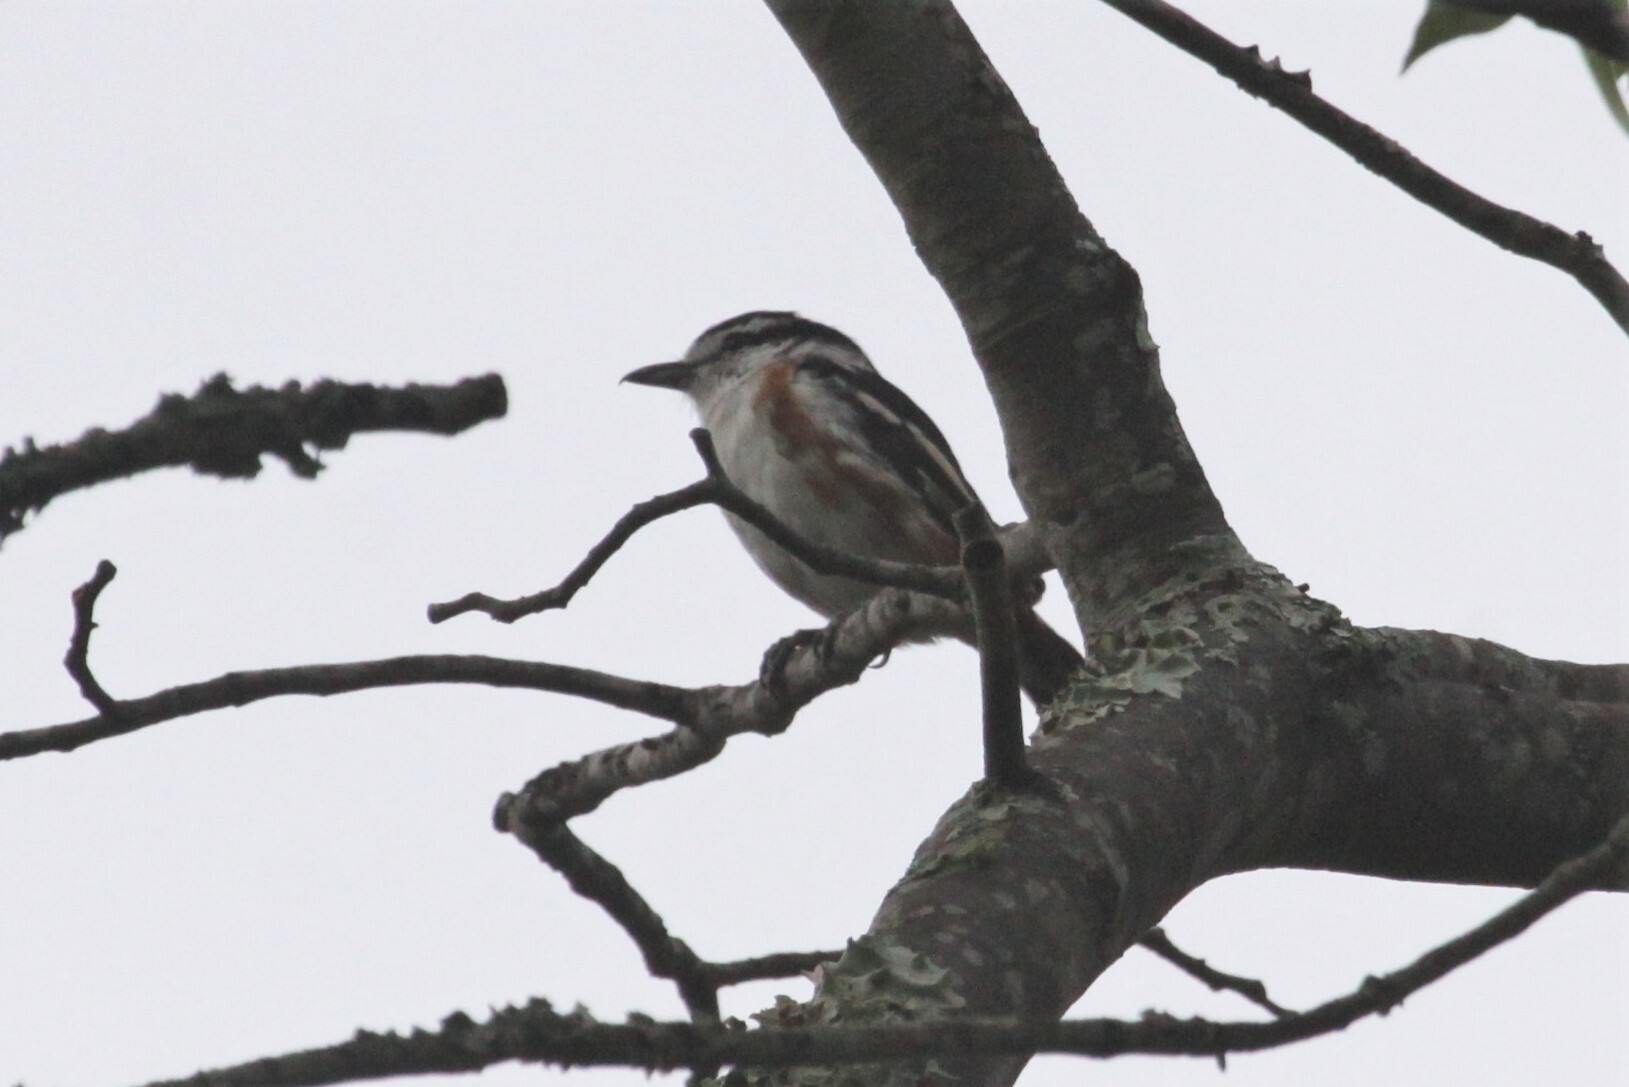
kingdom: Animalia
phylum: Chordata
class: Aves
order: Passeriformes
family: Malaconotidae
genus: Nilaus
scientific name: Nilaus afer
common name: Brubru
